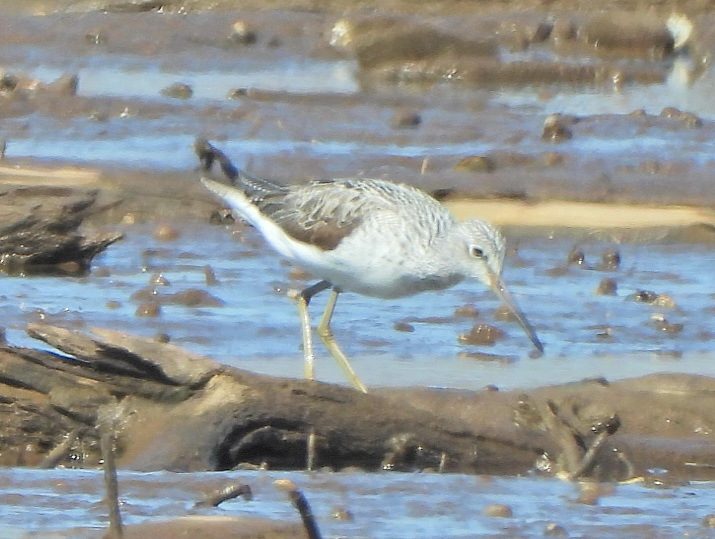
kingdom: Animalia
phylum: Chordata
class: Aves
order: Charadriiformes
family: Scolopacidae
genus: Tringa
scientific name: Tringa nebularia
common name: Common greenshank
